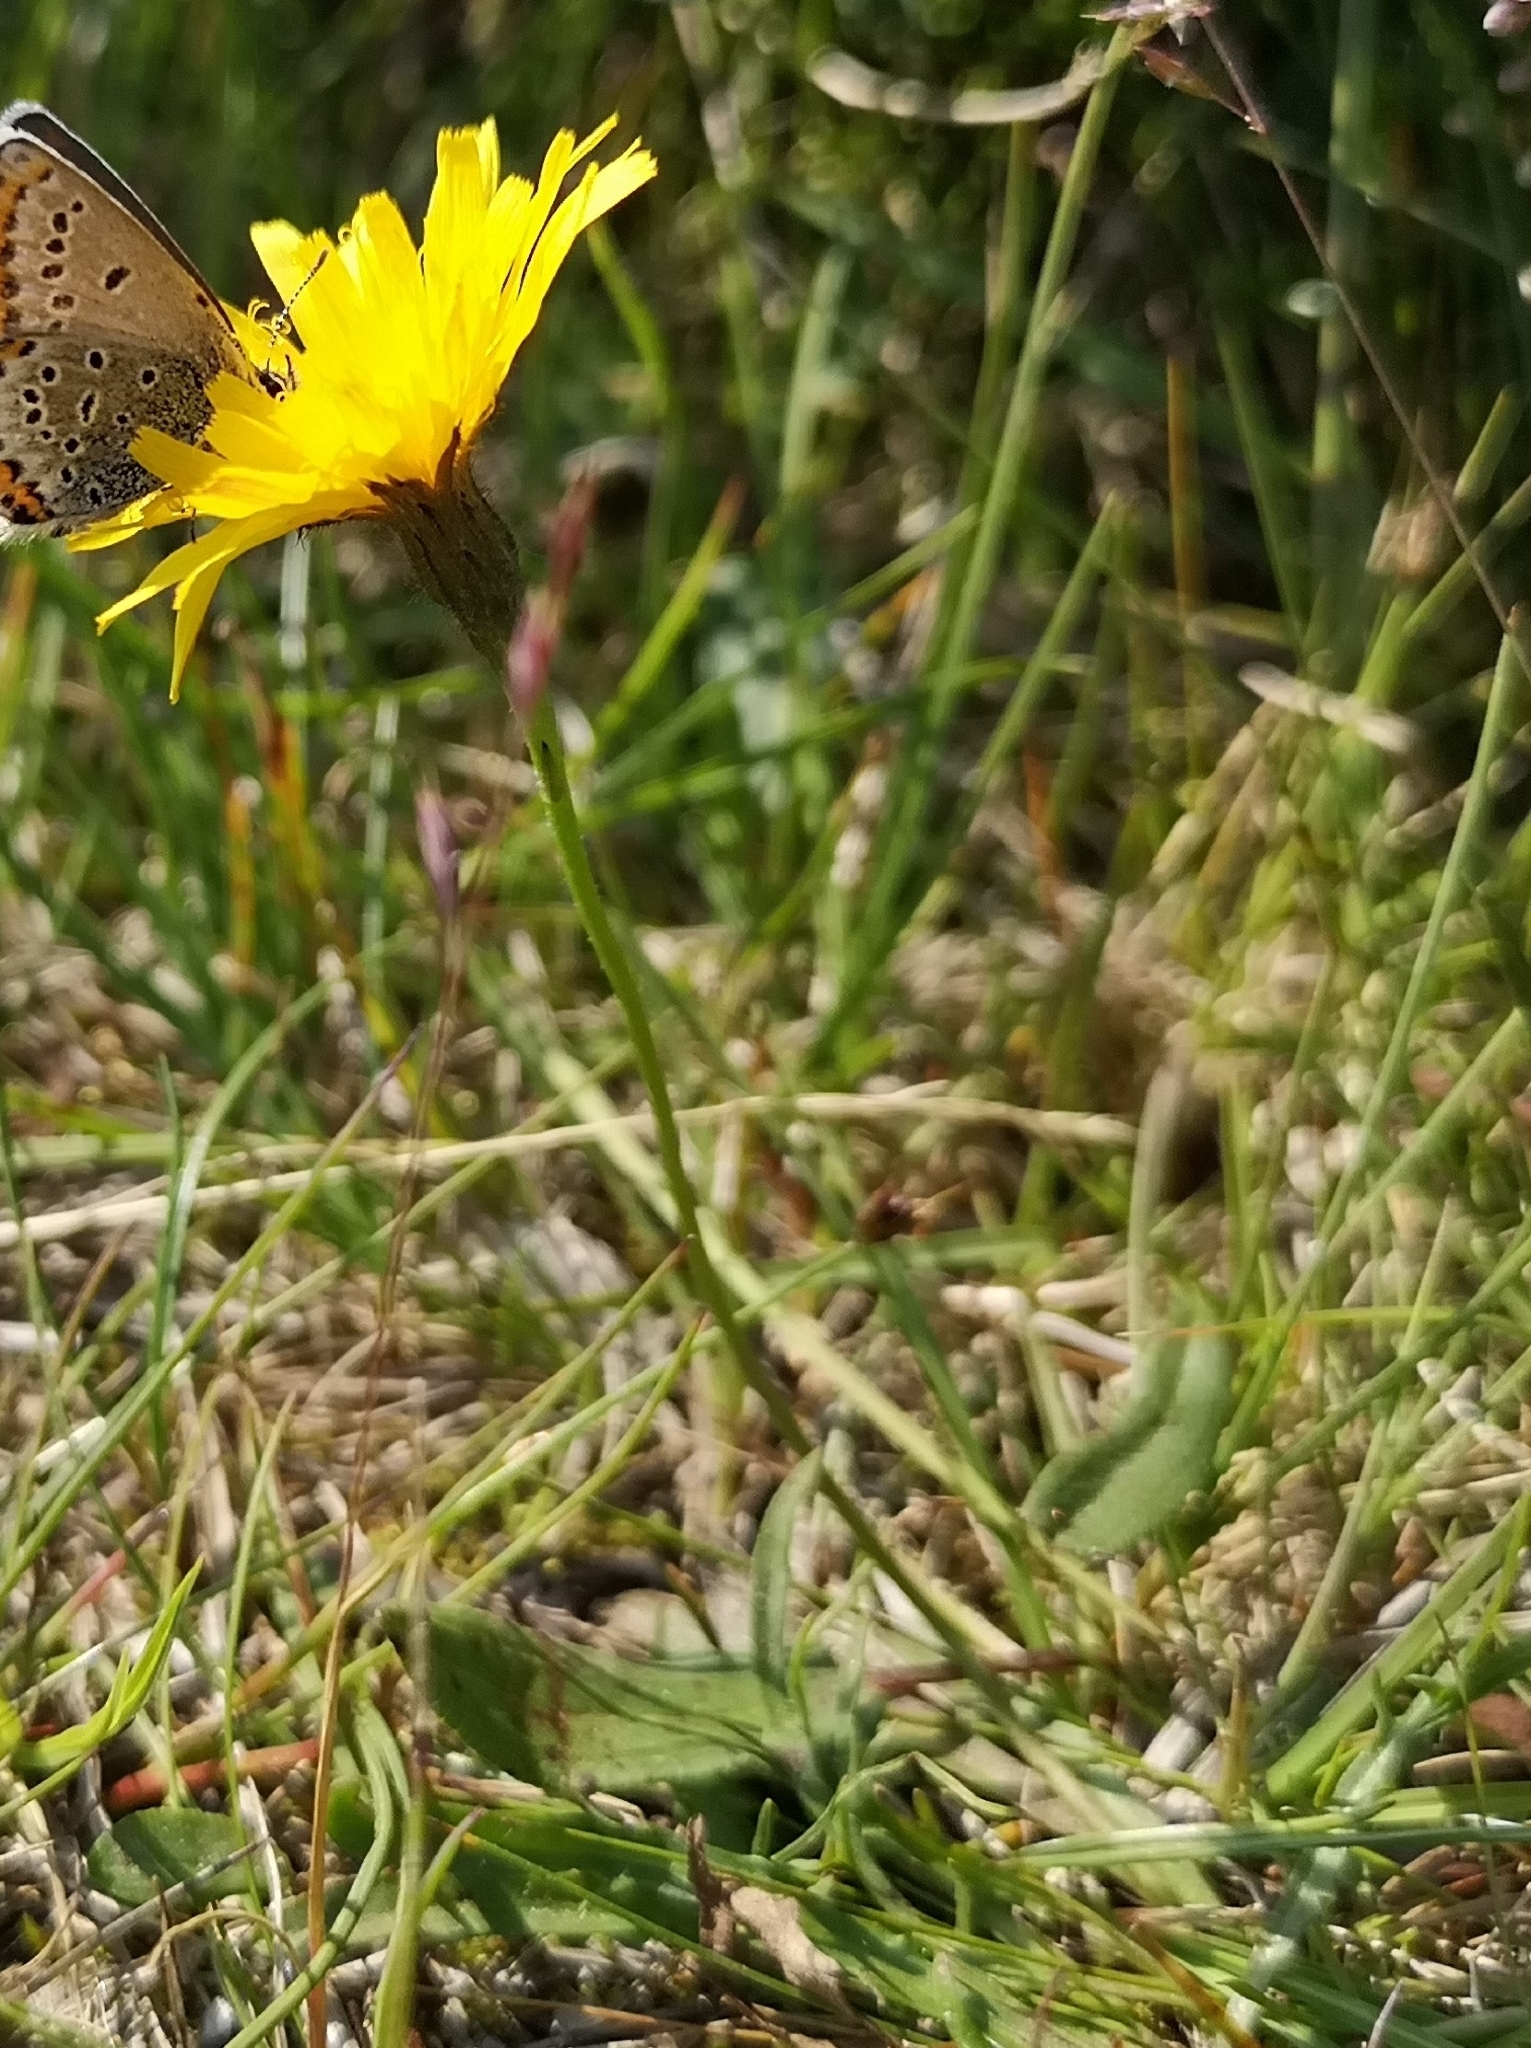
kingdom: Plantae
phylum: Tracheophyta
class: Magnoliopsida
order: Asterales
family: Asteraceae
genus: Scorzoneroides
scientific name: Scorzoneroides autumnalis
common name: Autumn hawkbit
